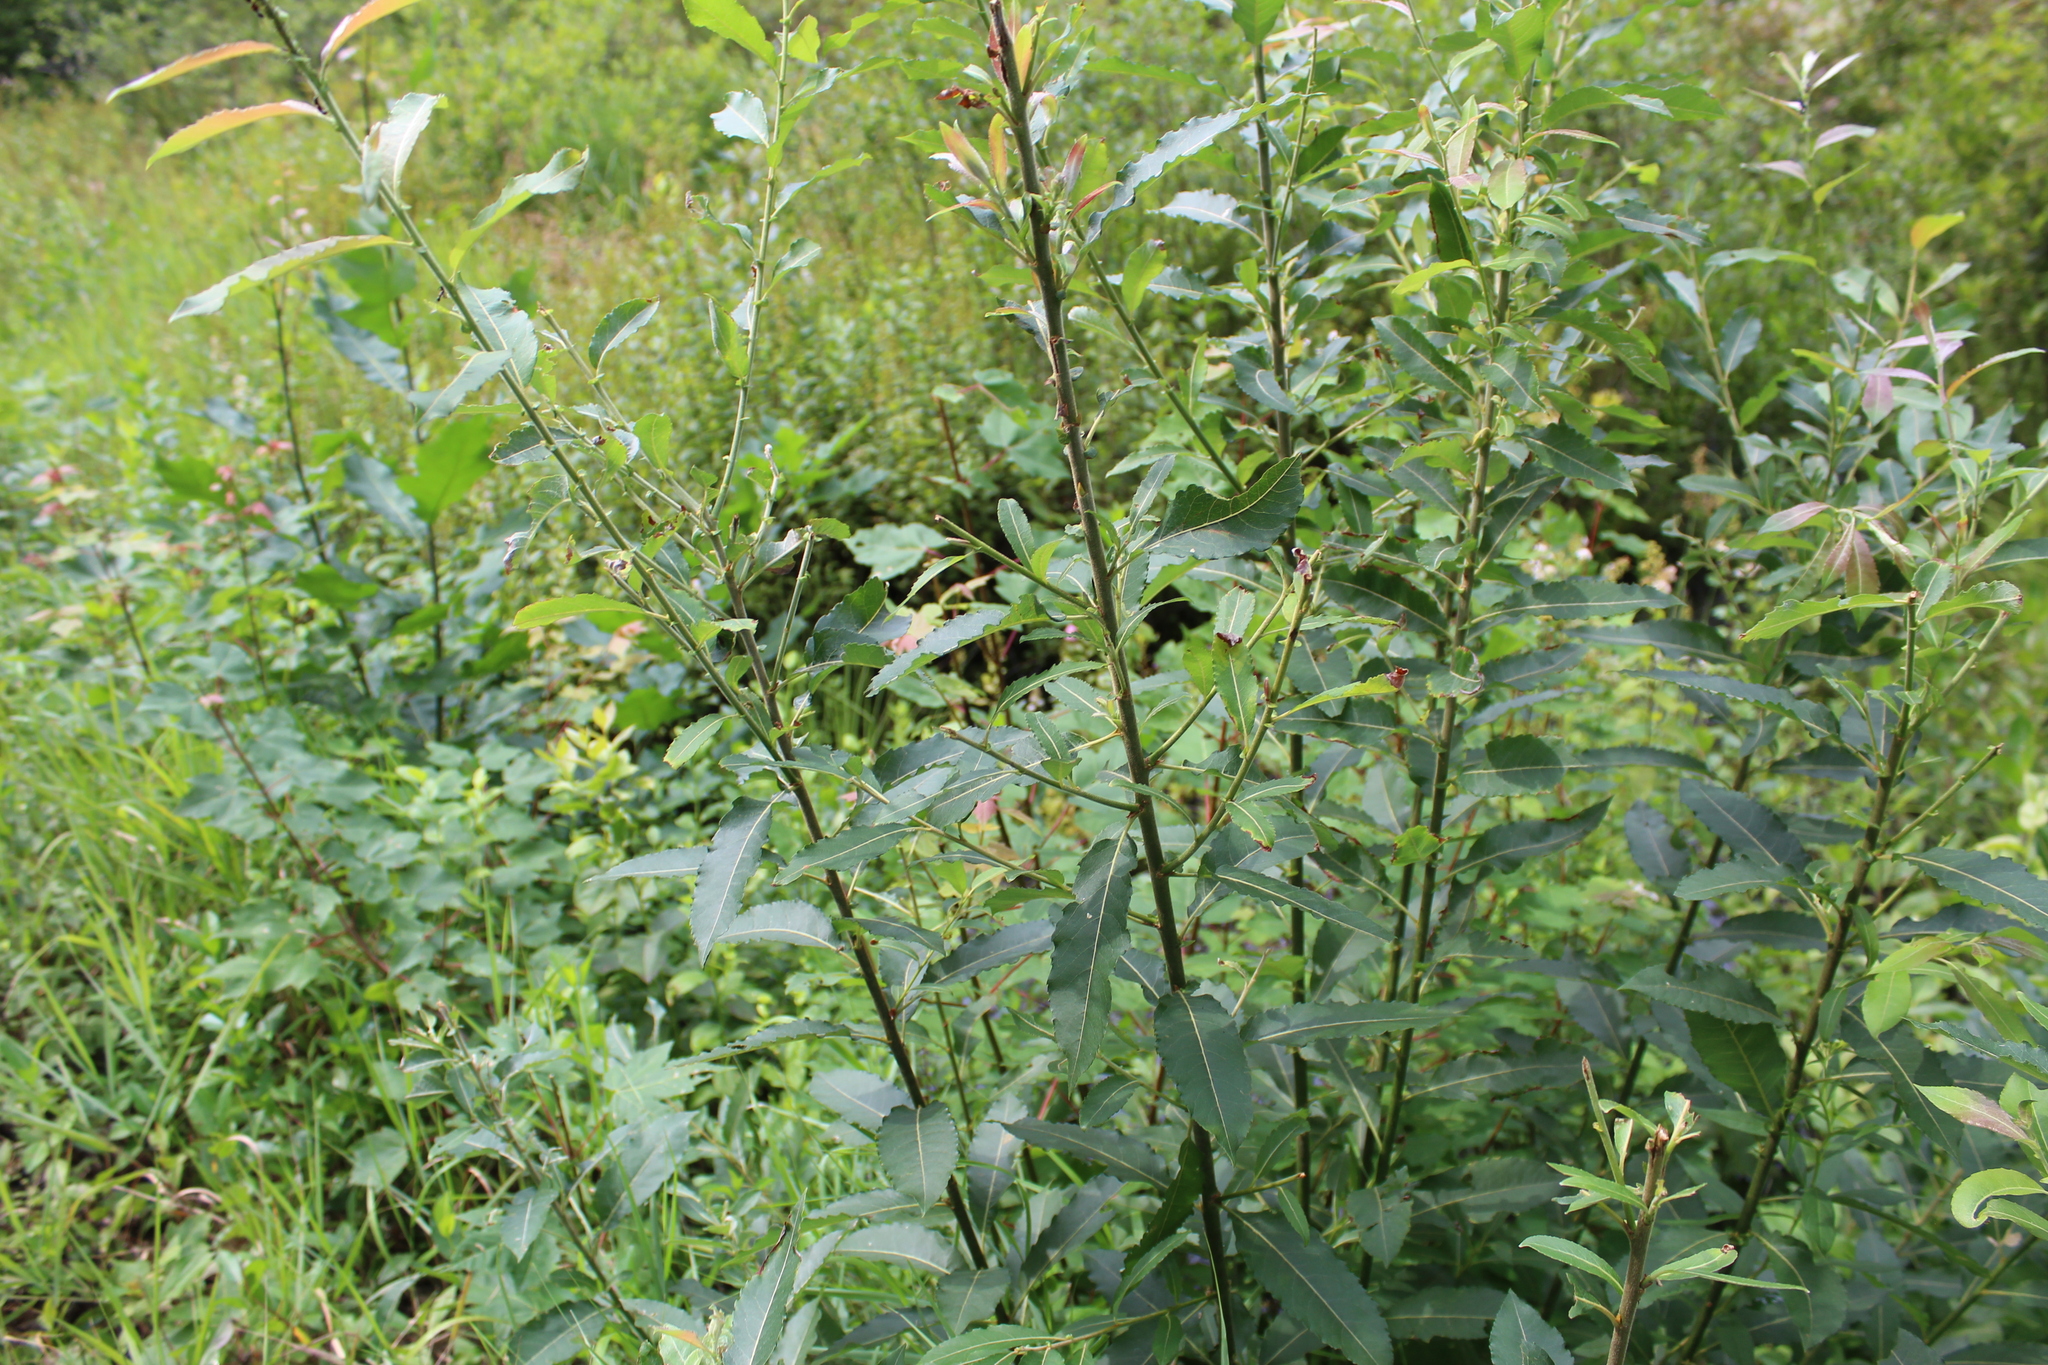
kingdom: Plantae
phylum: Tracheophyta
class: Magnoliopsida
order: Malpighiales
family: Salicaceae
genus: Salix
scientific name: Salix eriocephala
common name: Heart-leaved willow
